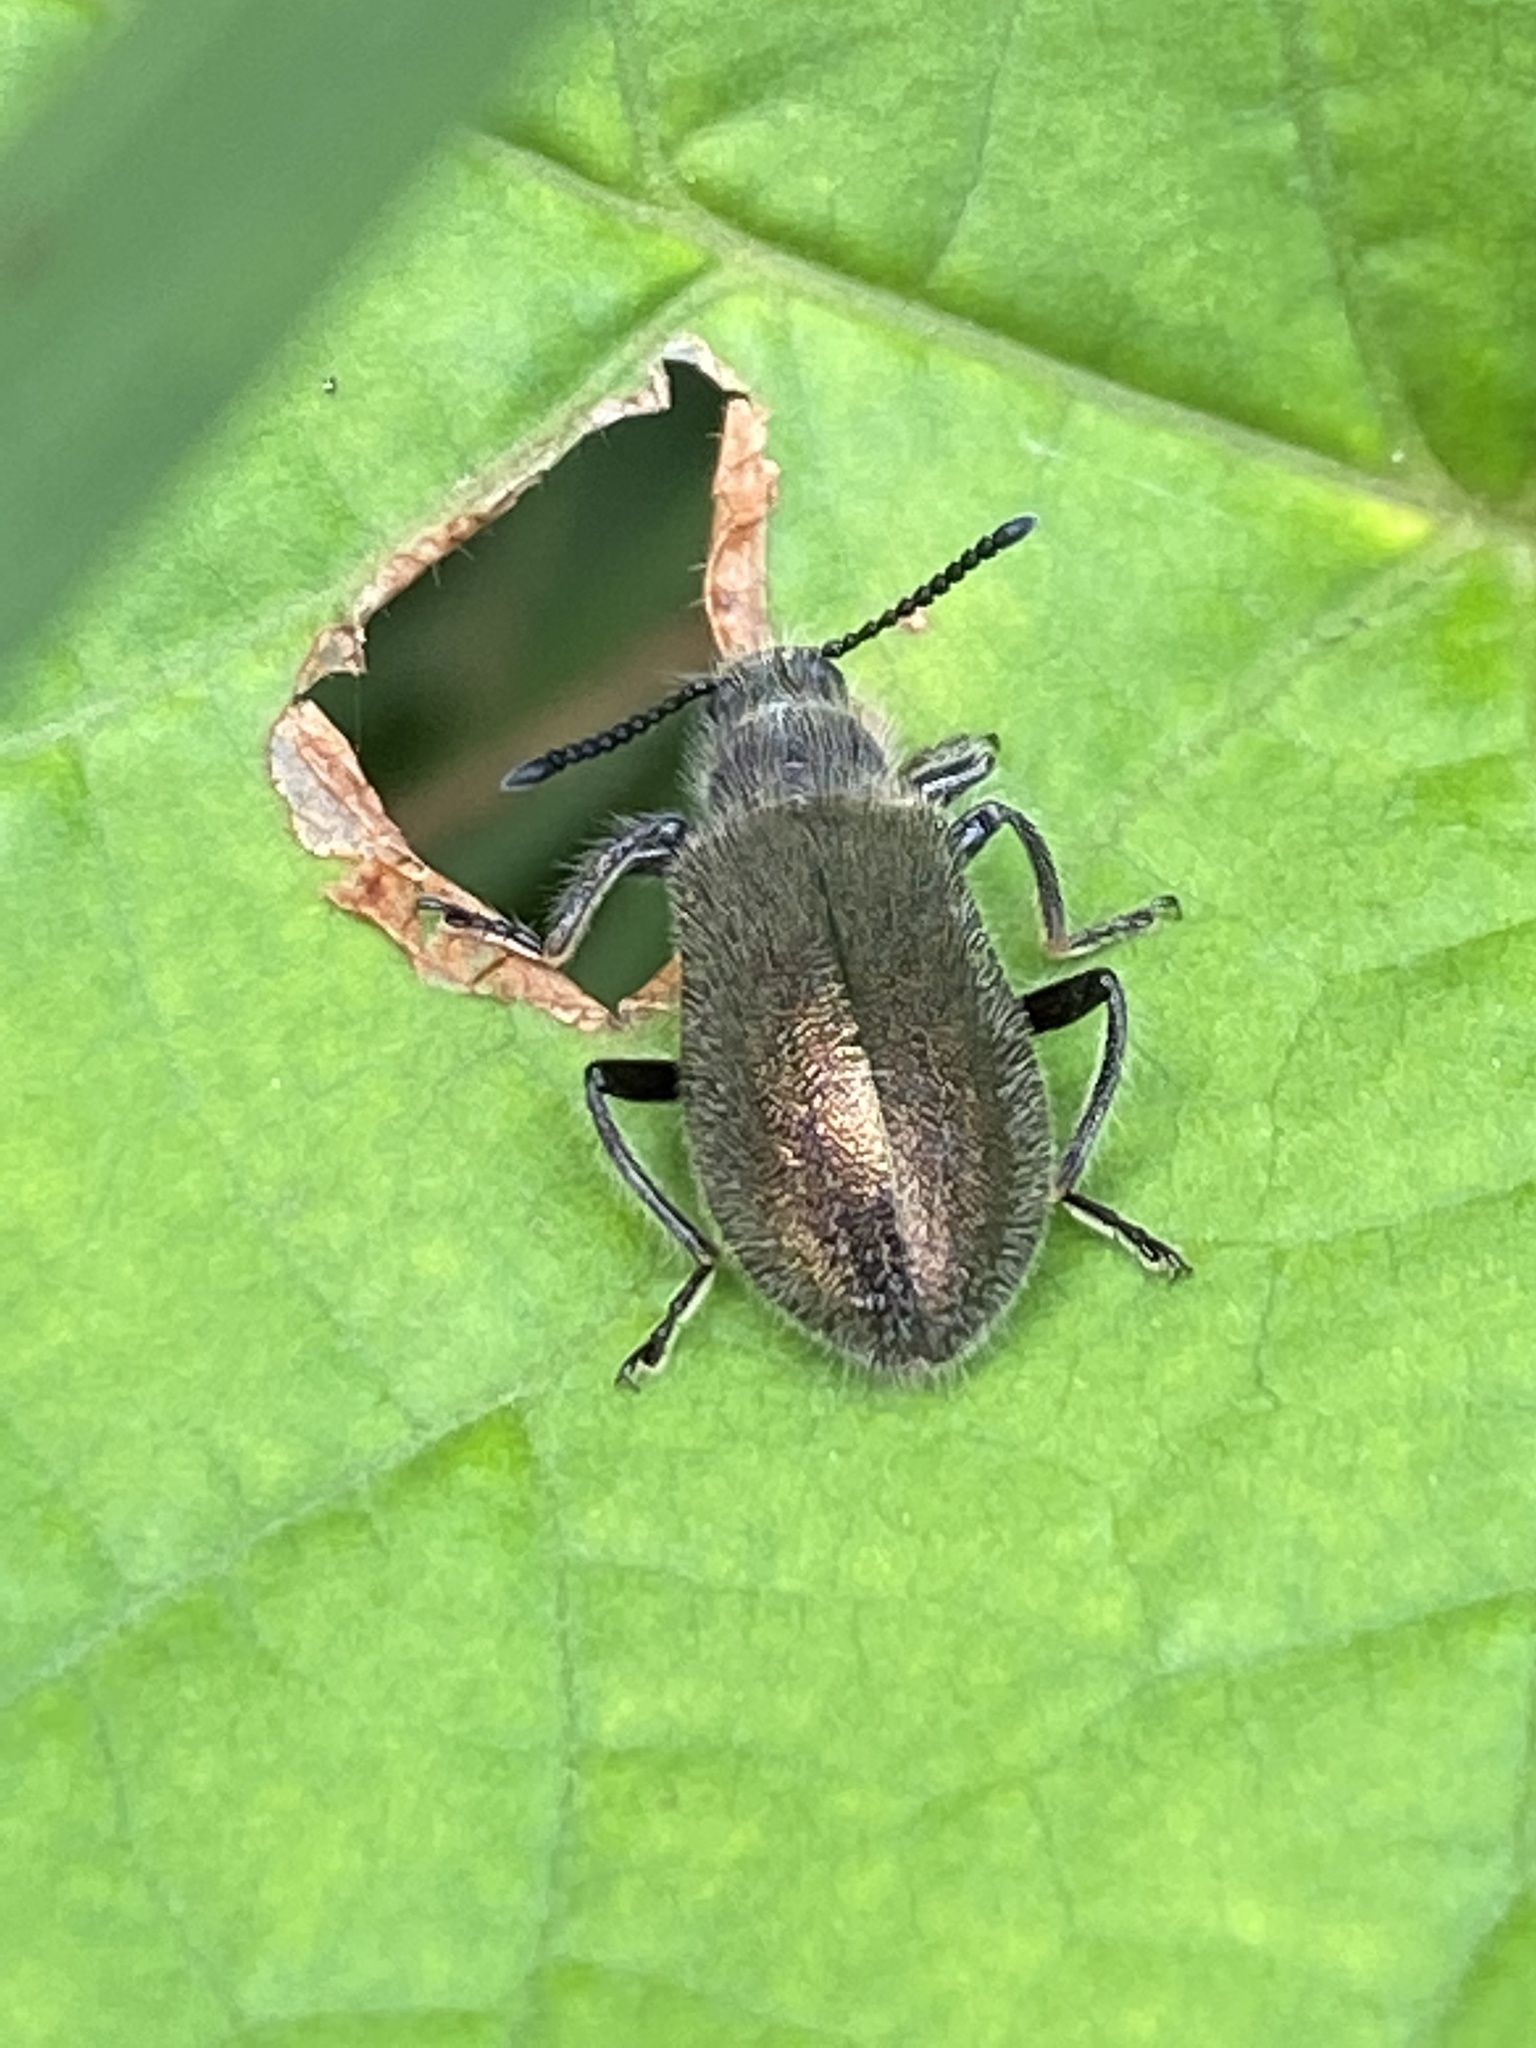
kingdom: Animalia
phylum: Arthropoda
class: Insecta
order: Coleoptera
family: Tenebrionidae
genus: Lagria
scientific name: Lagria villosa
